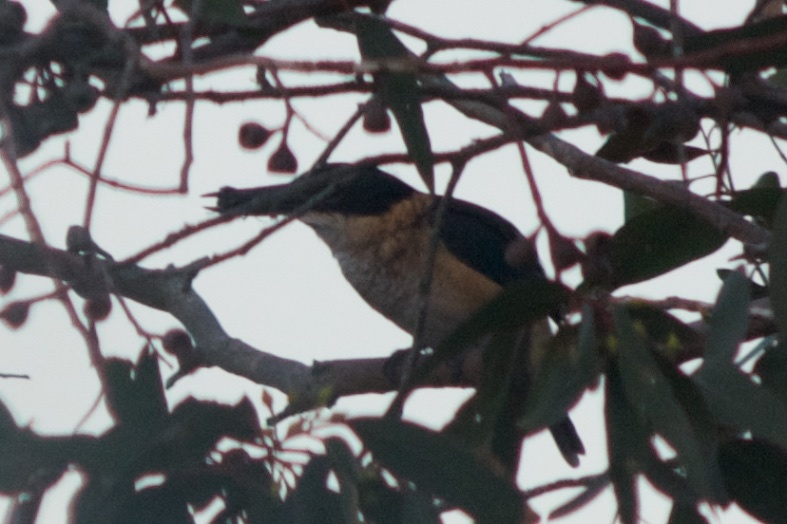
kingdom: Animalia
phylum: Chordata
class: Aves
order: Coraciiformes
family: Alcedinidae
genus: Todiramphus
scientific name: Todiramphus sanctus
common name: Sacred kingfisher
